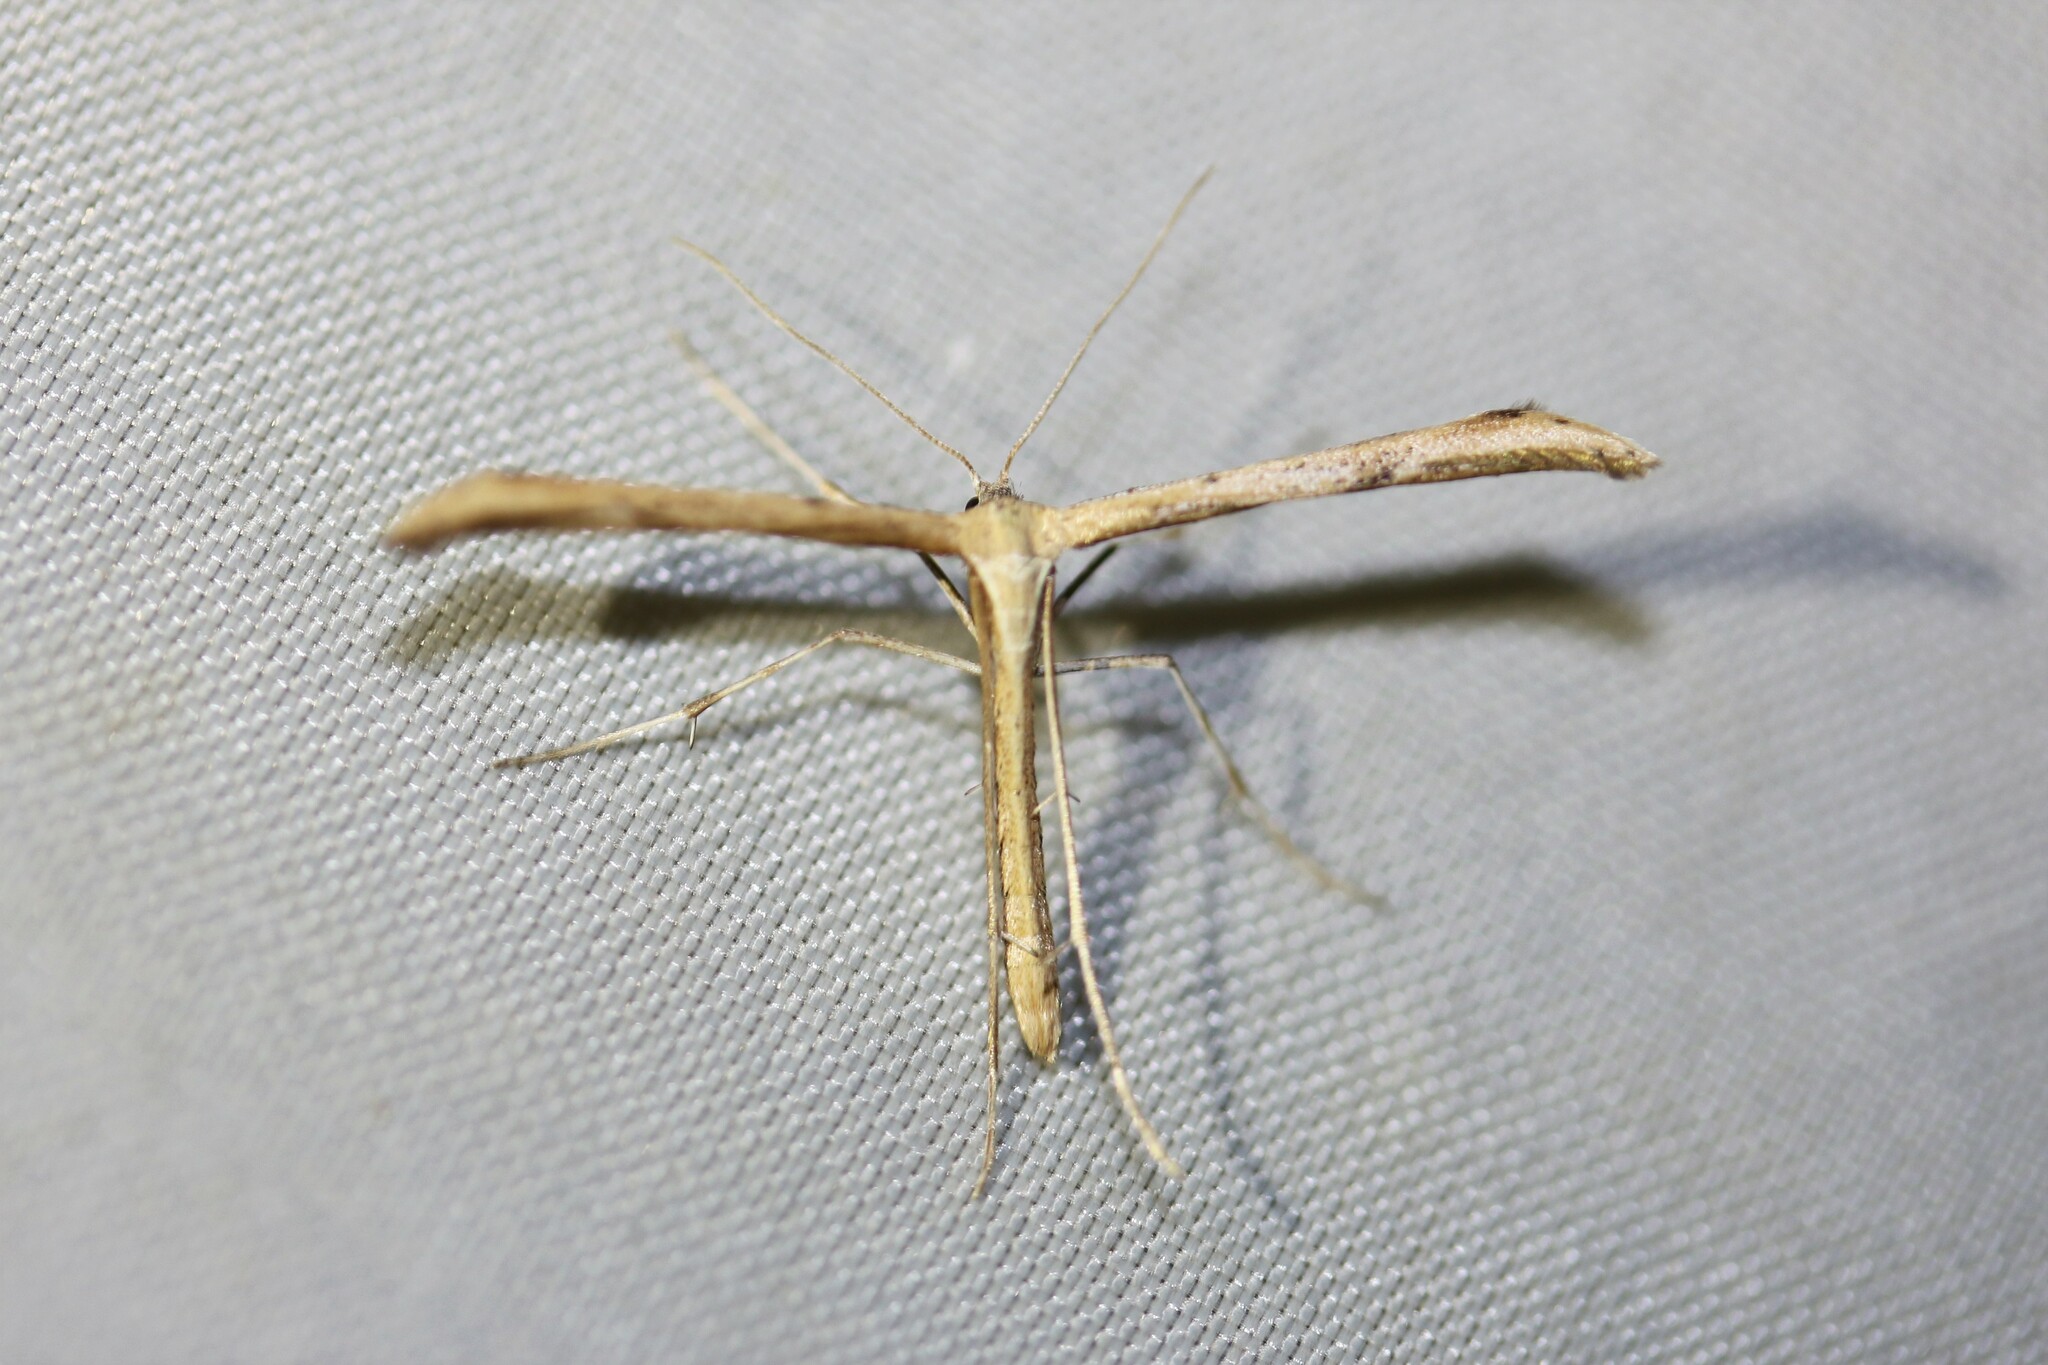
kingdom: Animalia
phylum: Arthropoda
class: Insecta
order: Lepidoptera
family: Pterophoridae
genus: Emmelina
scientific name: Emmelina monodactyla
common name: Common plume
